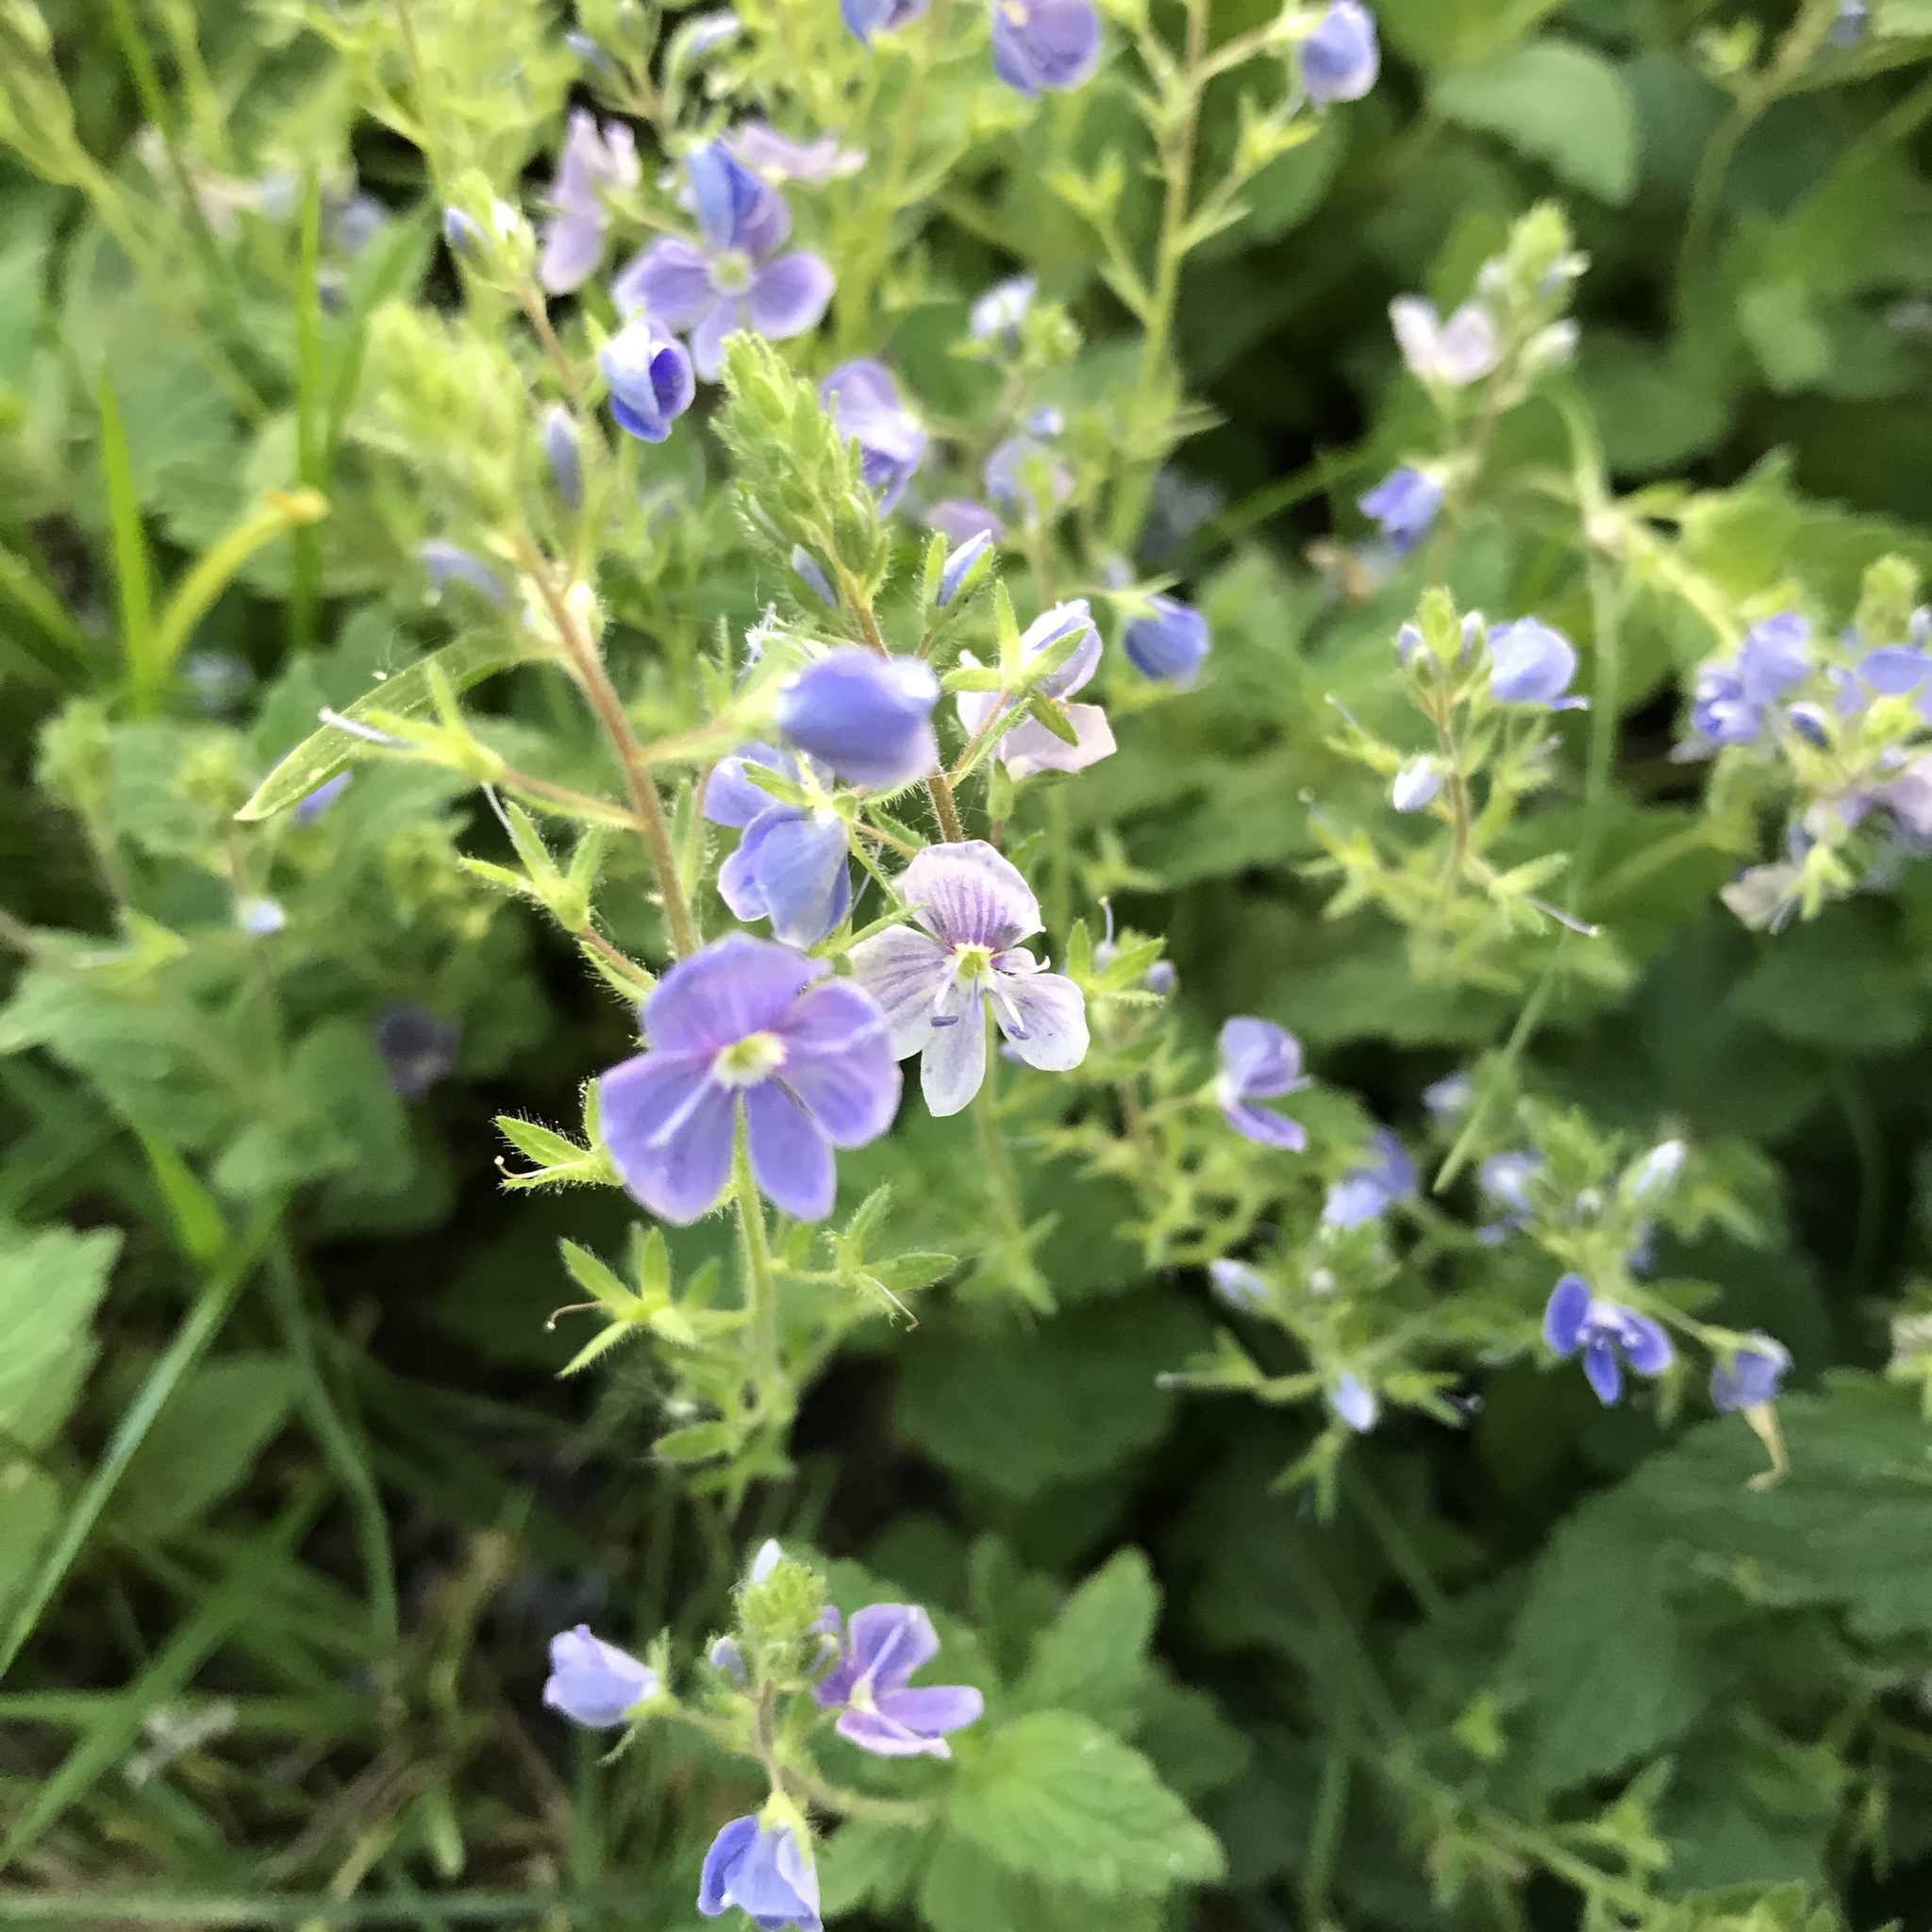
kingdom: Plantae
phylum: Tracheophyta
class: Magnoliopsida
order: Lamiales
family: Plantaginaceae
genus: Veronica
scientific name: Veronica chamaedrys
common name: Germander speedwell
